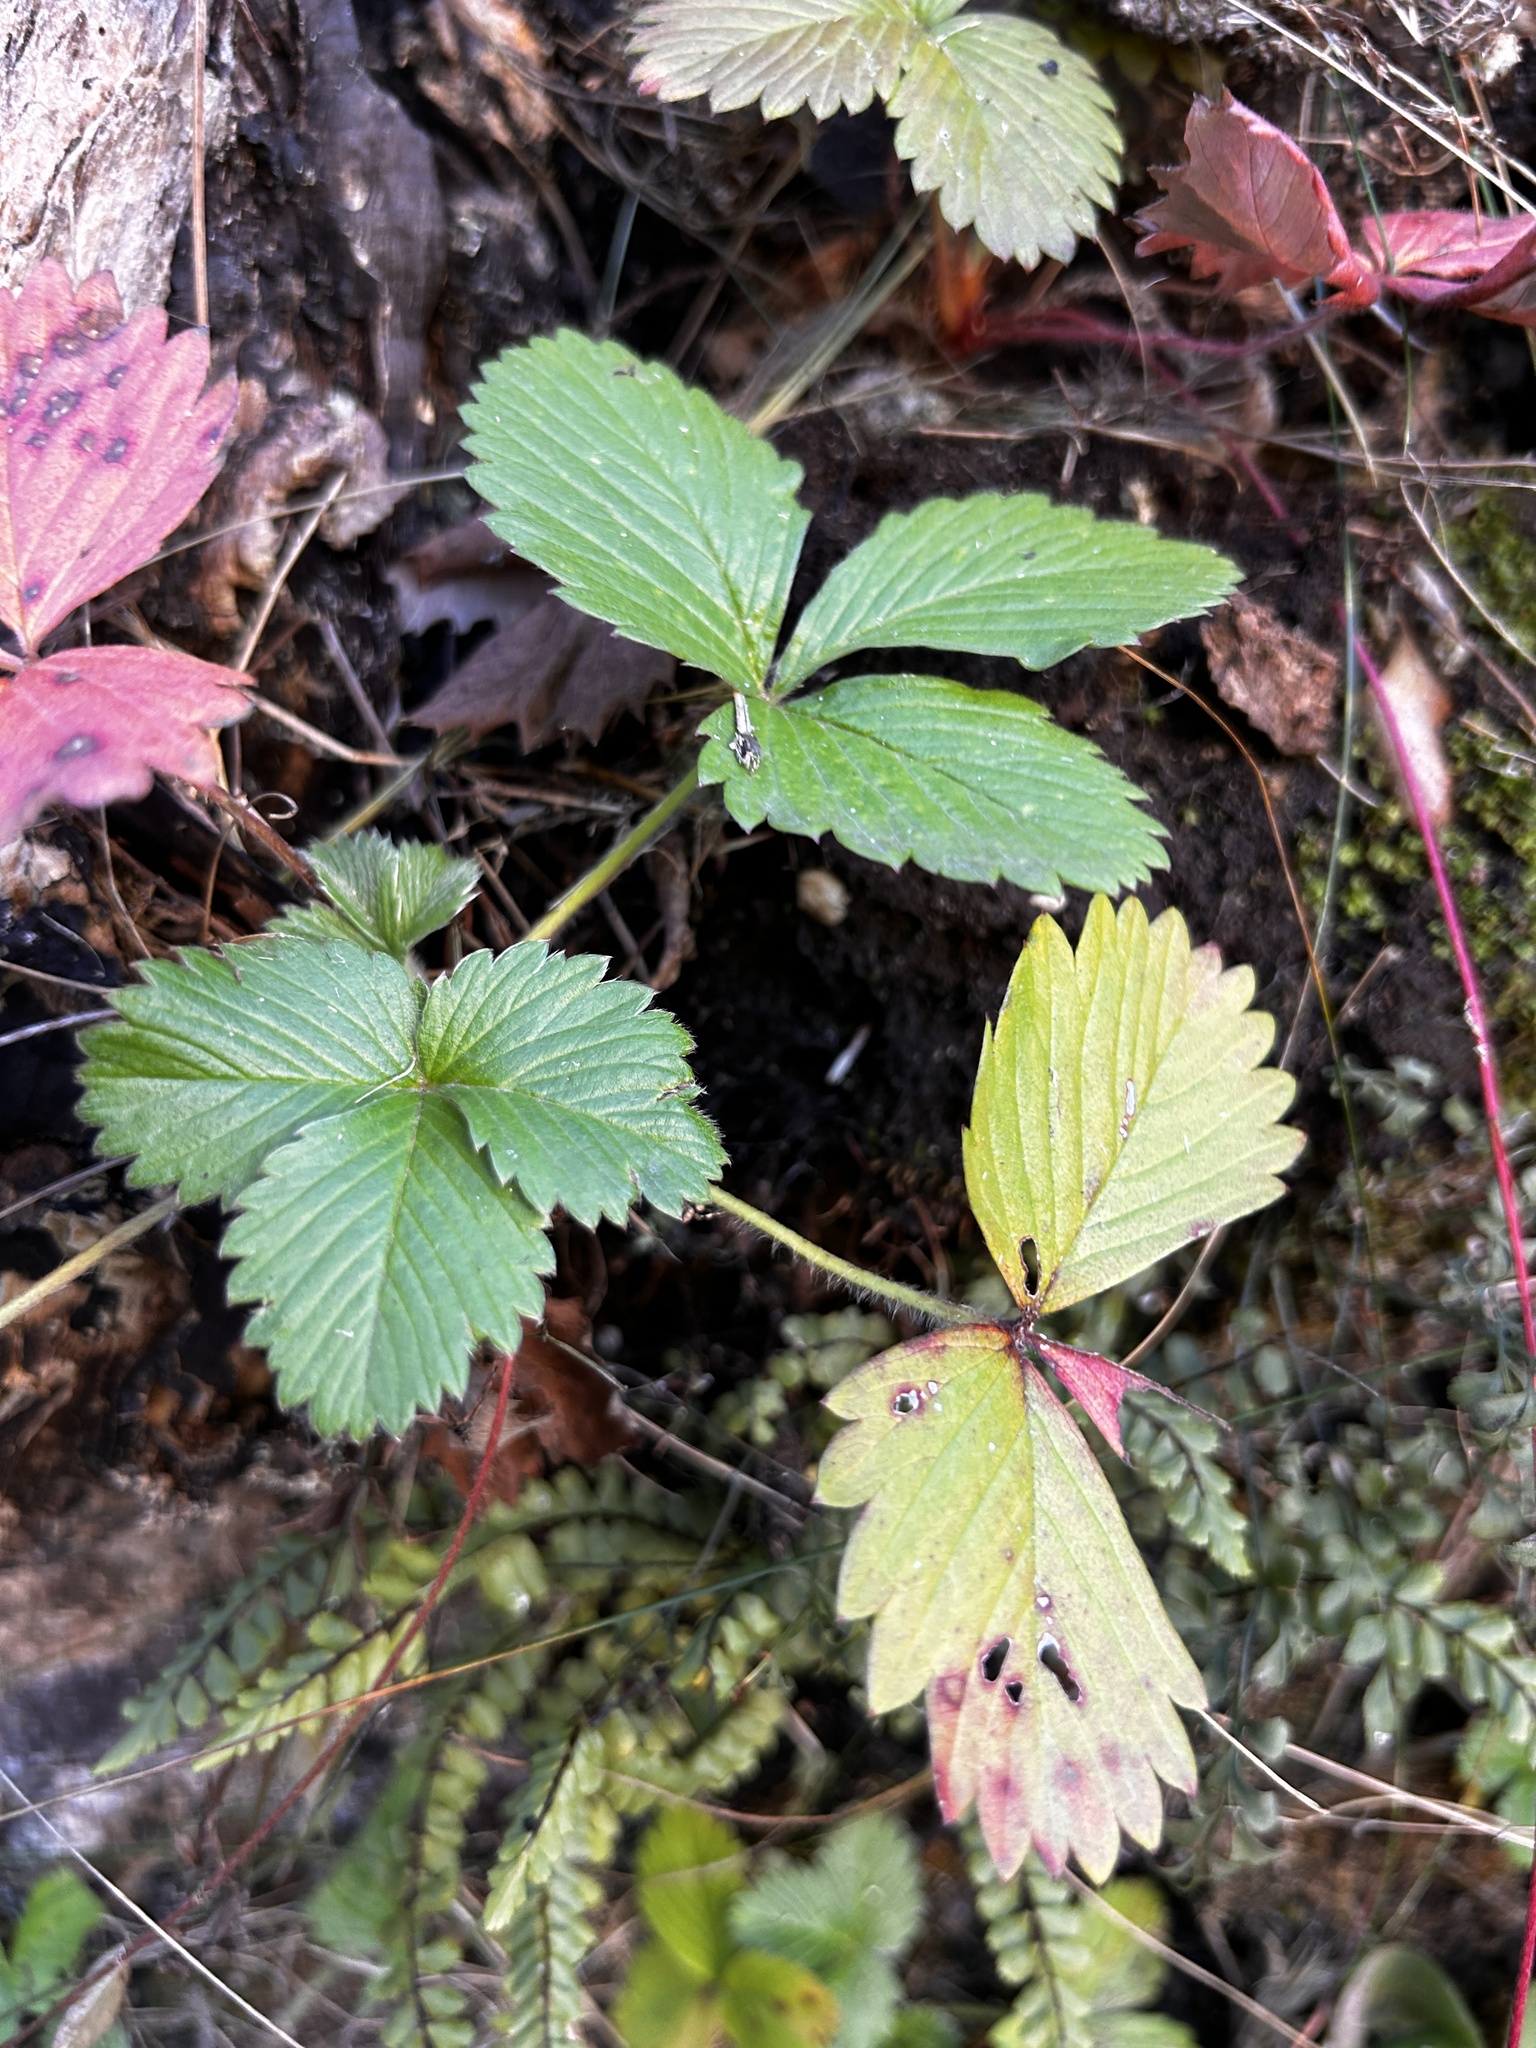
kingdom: Plantae
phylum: Tracheophyta
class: Magnoliopsida
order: Rosales
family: Rosaceae
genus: Fragaria
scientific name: Fragaria vesca
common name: Wild strawberry
